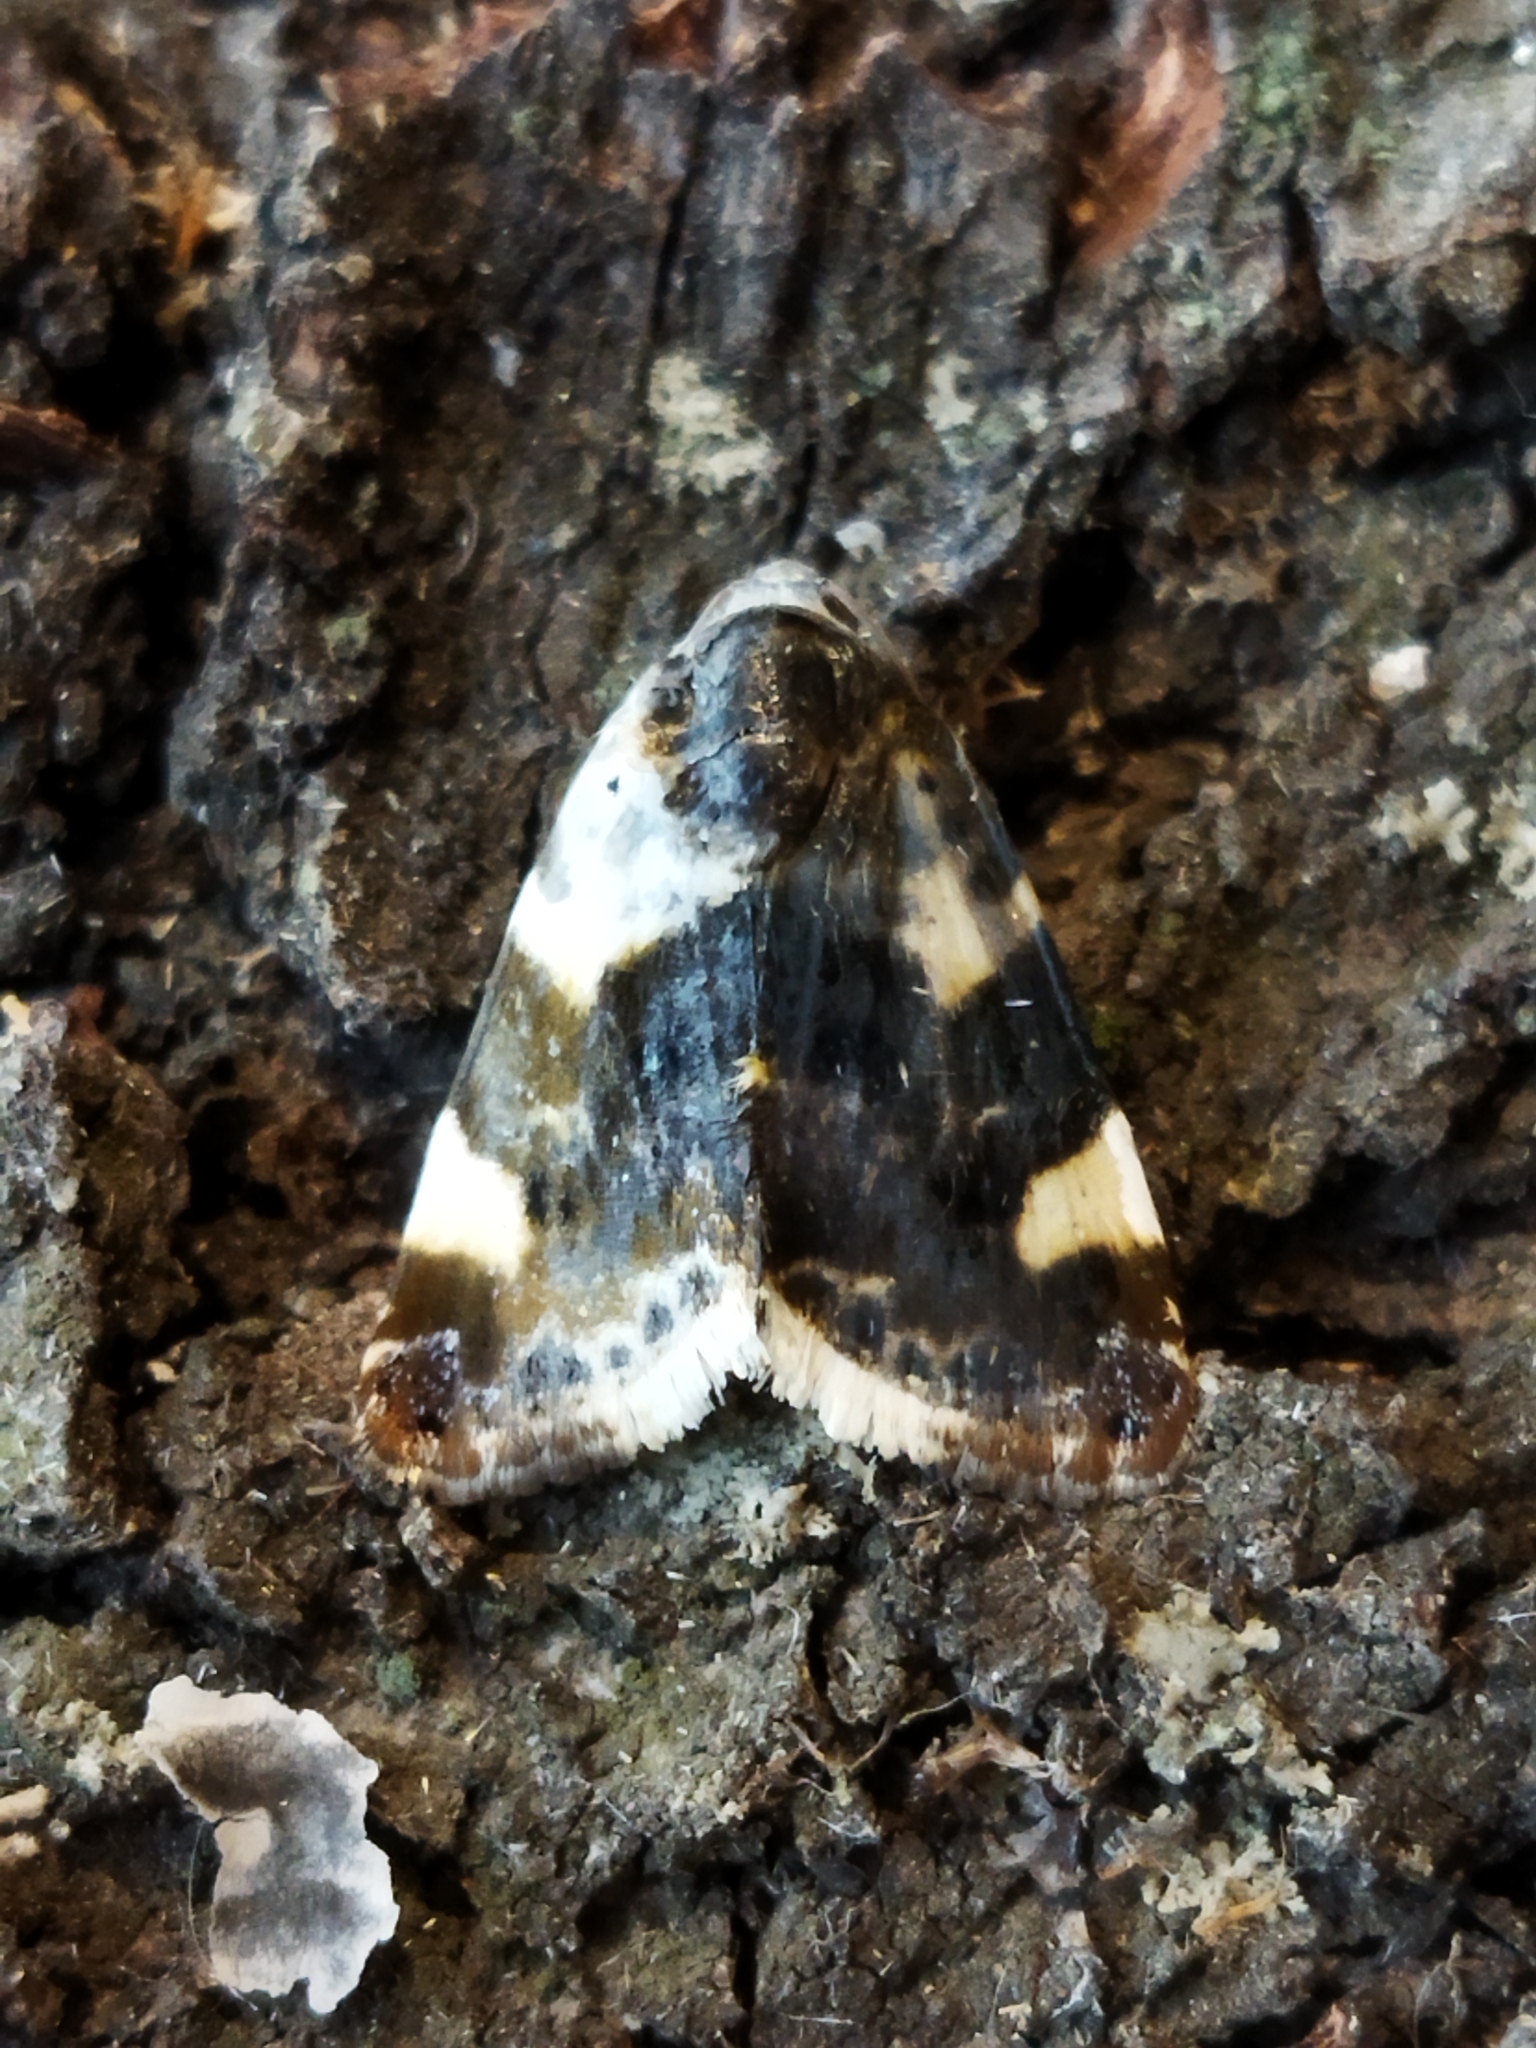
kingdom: Animalia
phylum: Arthropoda
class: Insecta
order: Lepidoptera
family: Noctuidae
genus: Acontia
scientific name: Acontia lucida
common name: Pale shoulder
